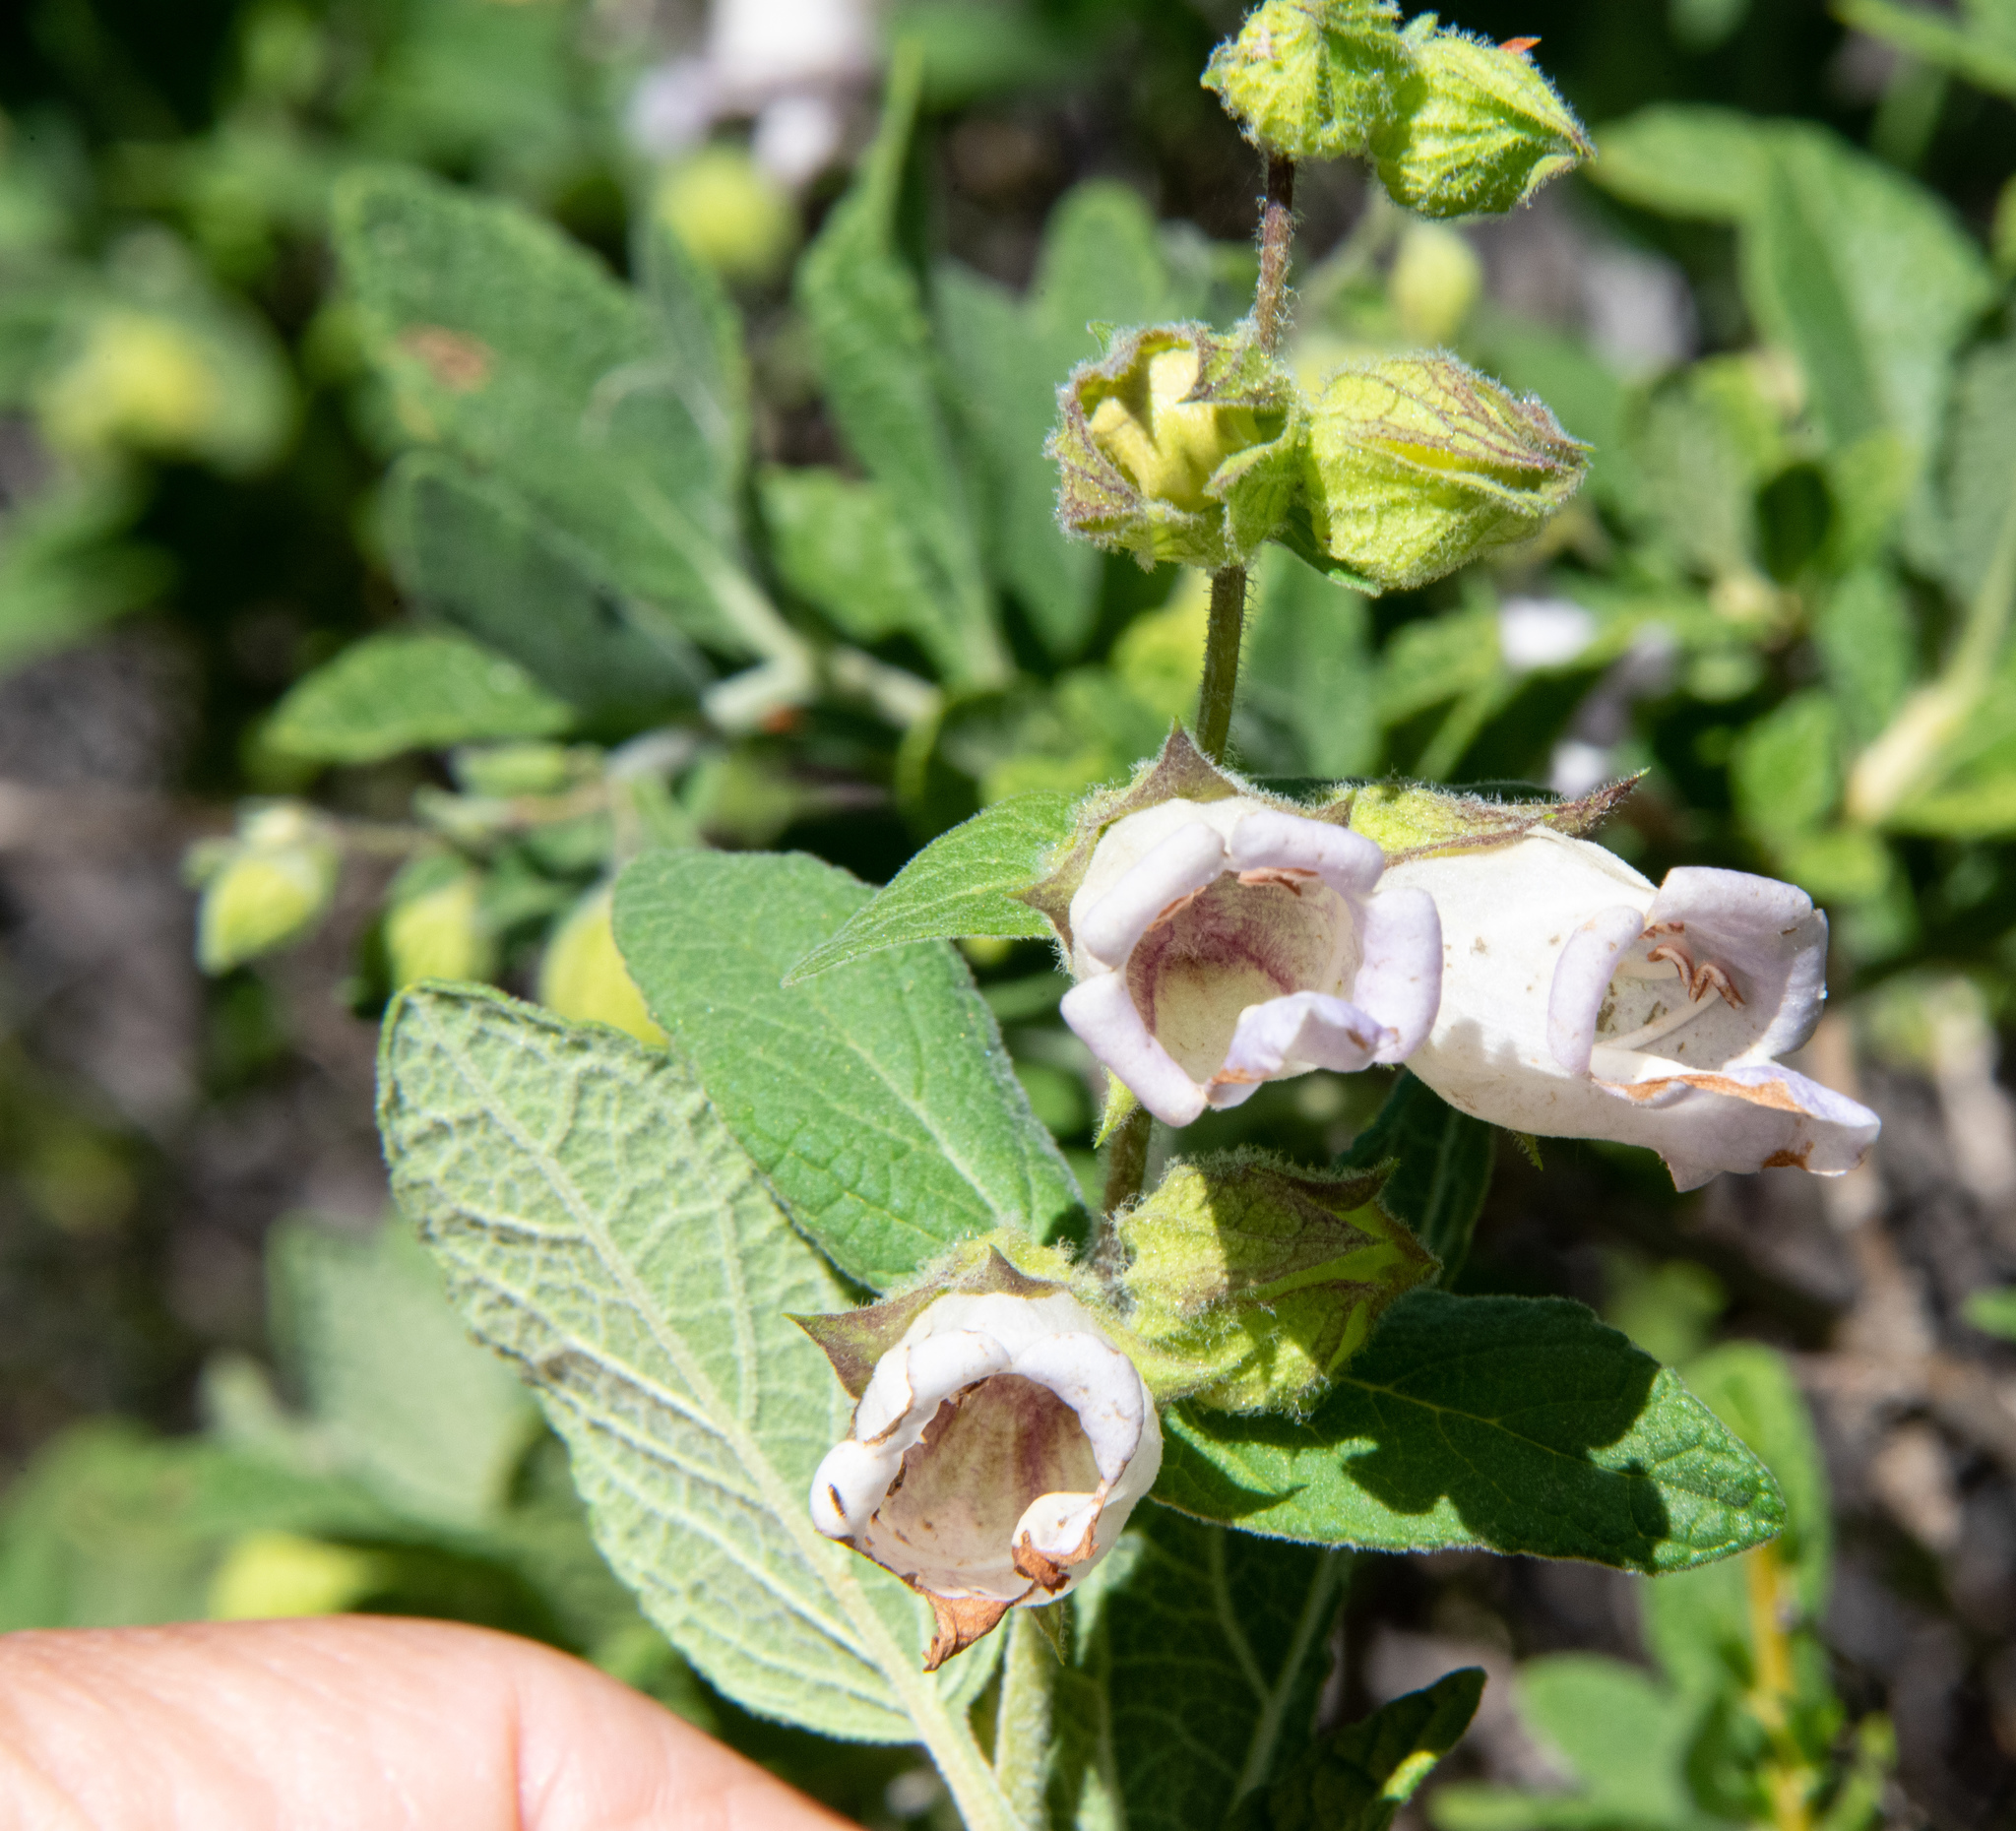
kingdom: Plantae
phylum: Tracheophyta
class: Magnoliopsida
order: Lamiales
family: Lamiaceae
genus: Lepechinia
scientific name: Lepechinia calycina
